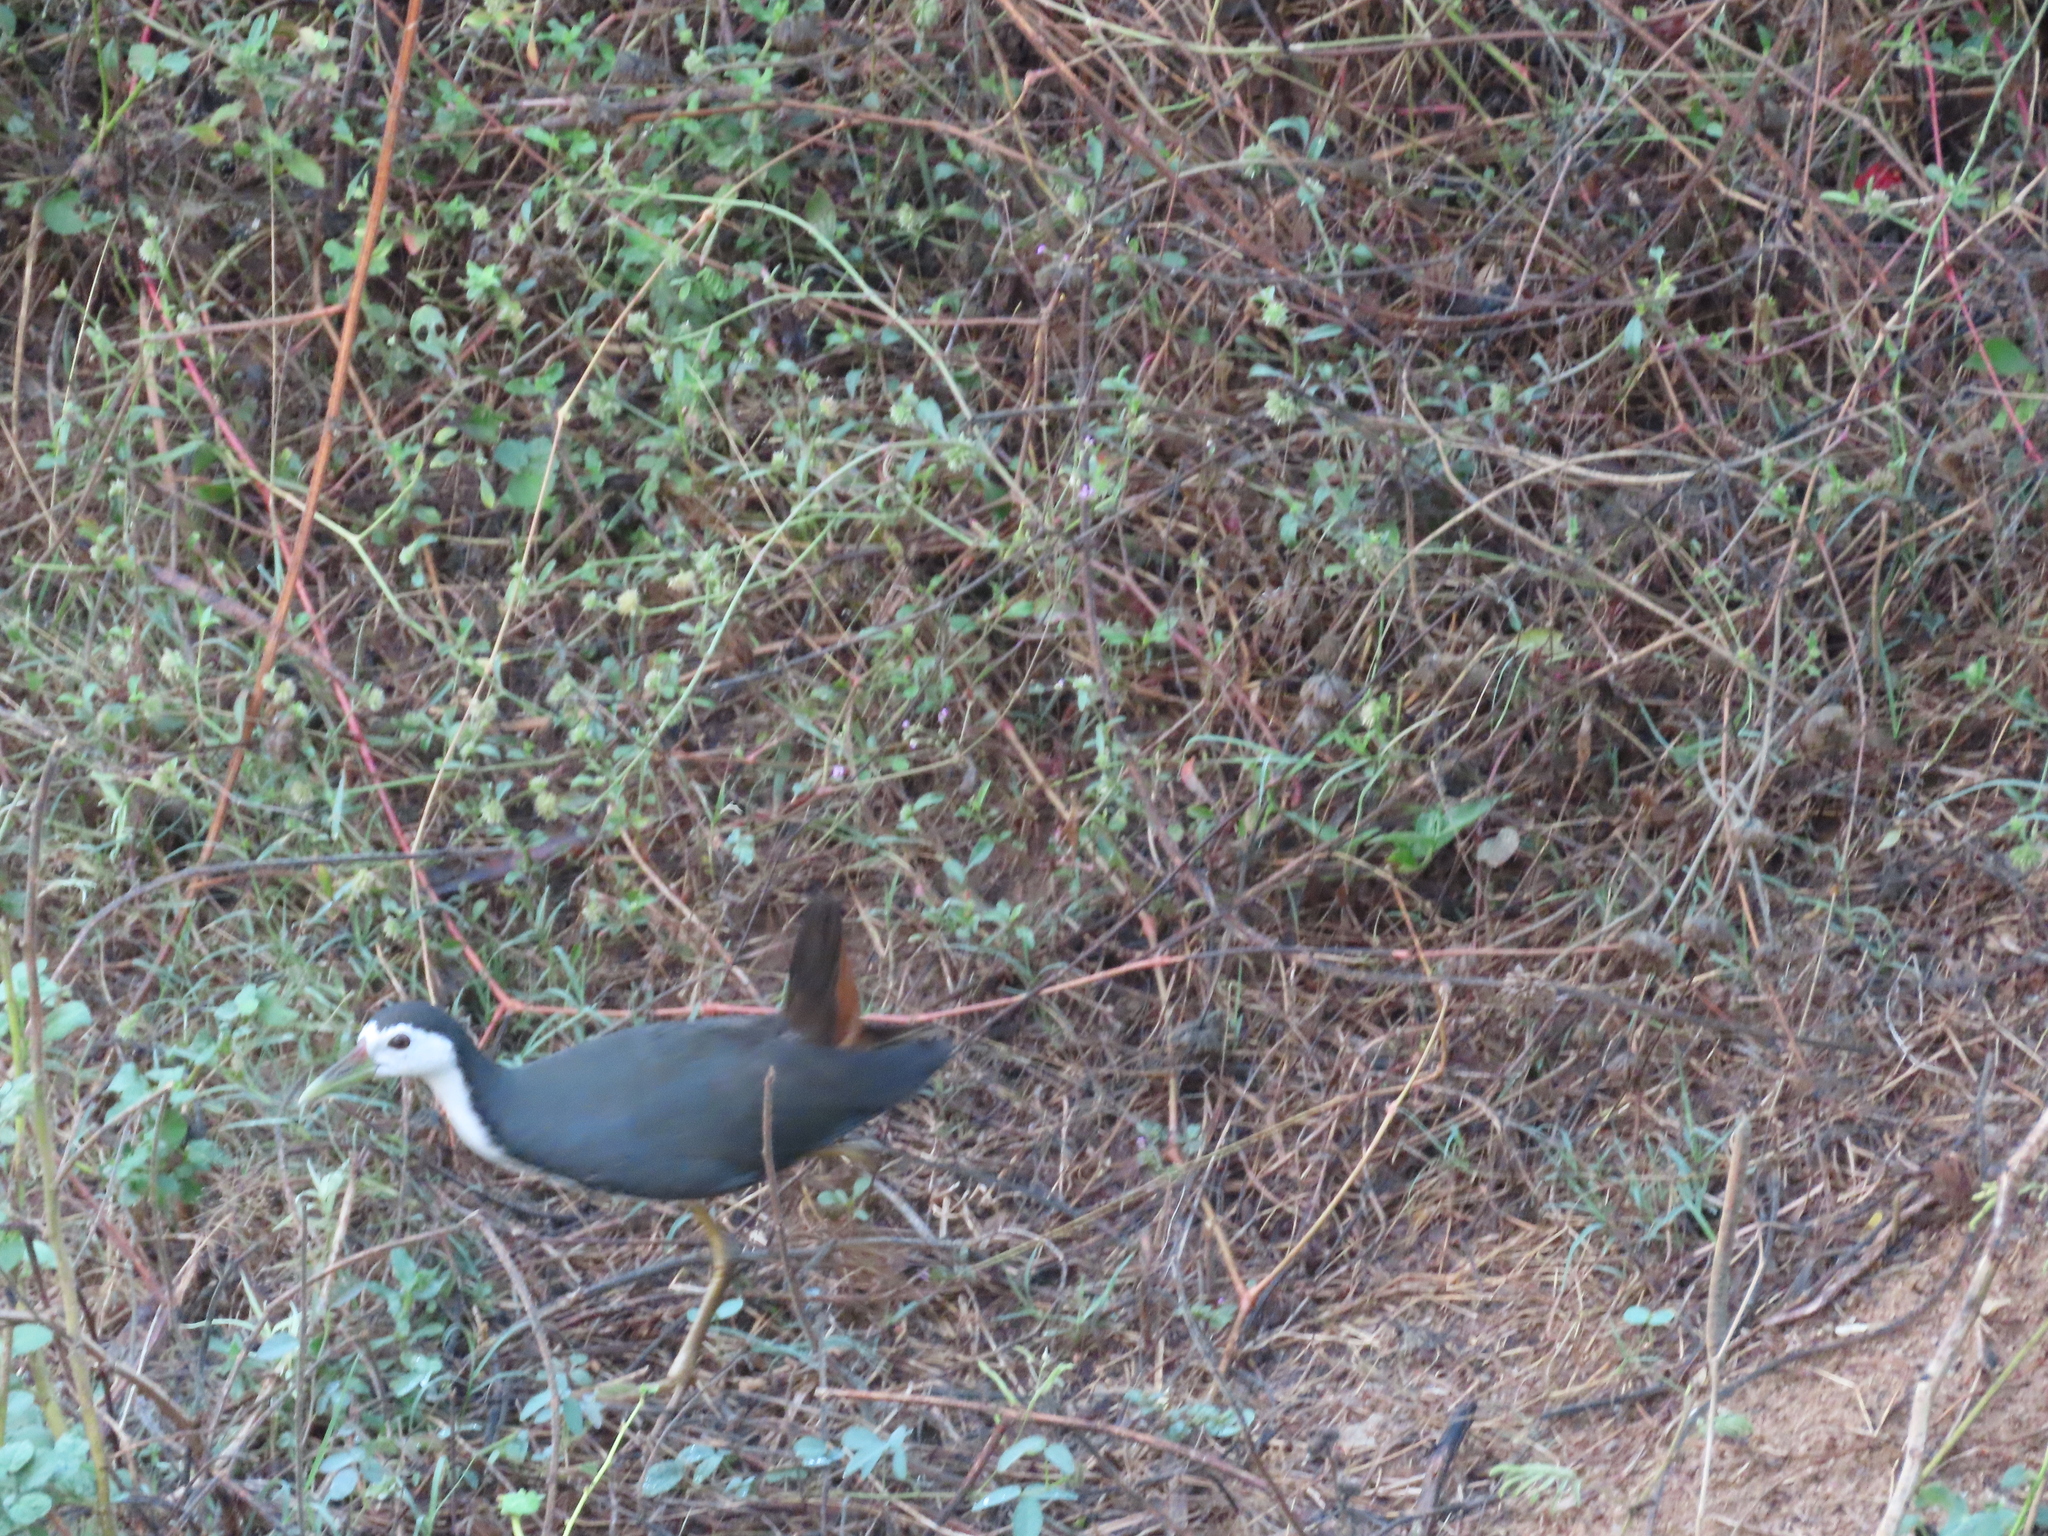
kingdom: Animalia
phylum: Chordata
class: Aves
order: Gruiformes
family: Rallidae
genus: Amaurornis
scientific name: Amaurornis phoenicurus
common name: White-breasted waterhen
